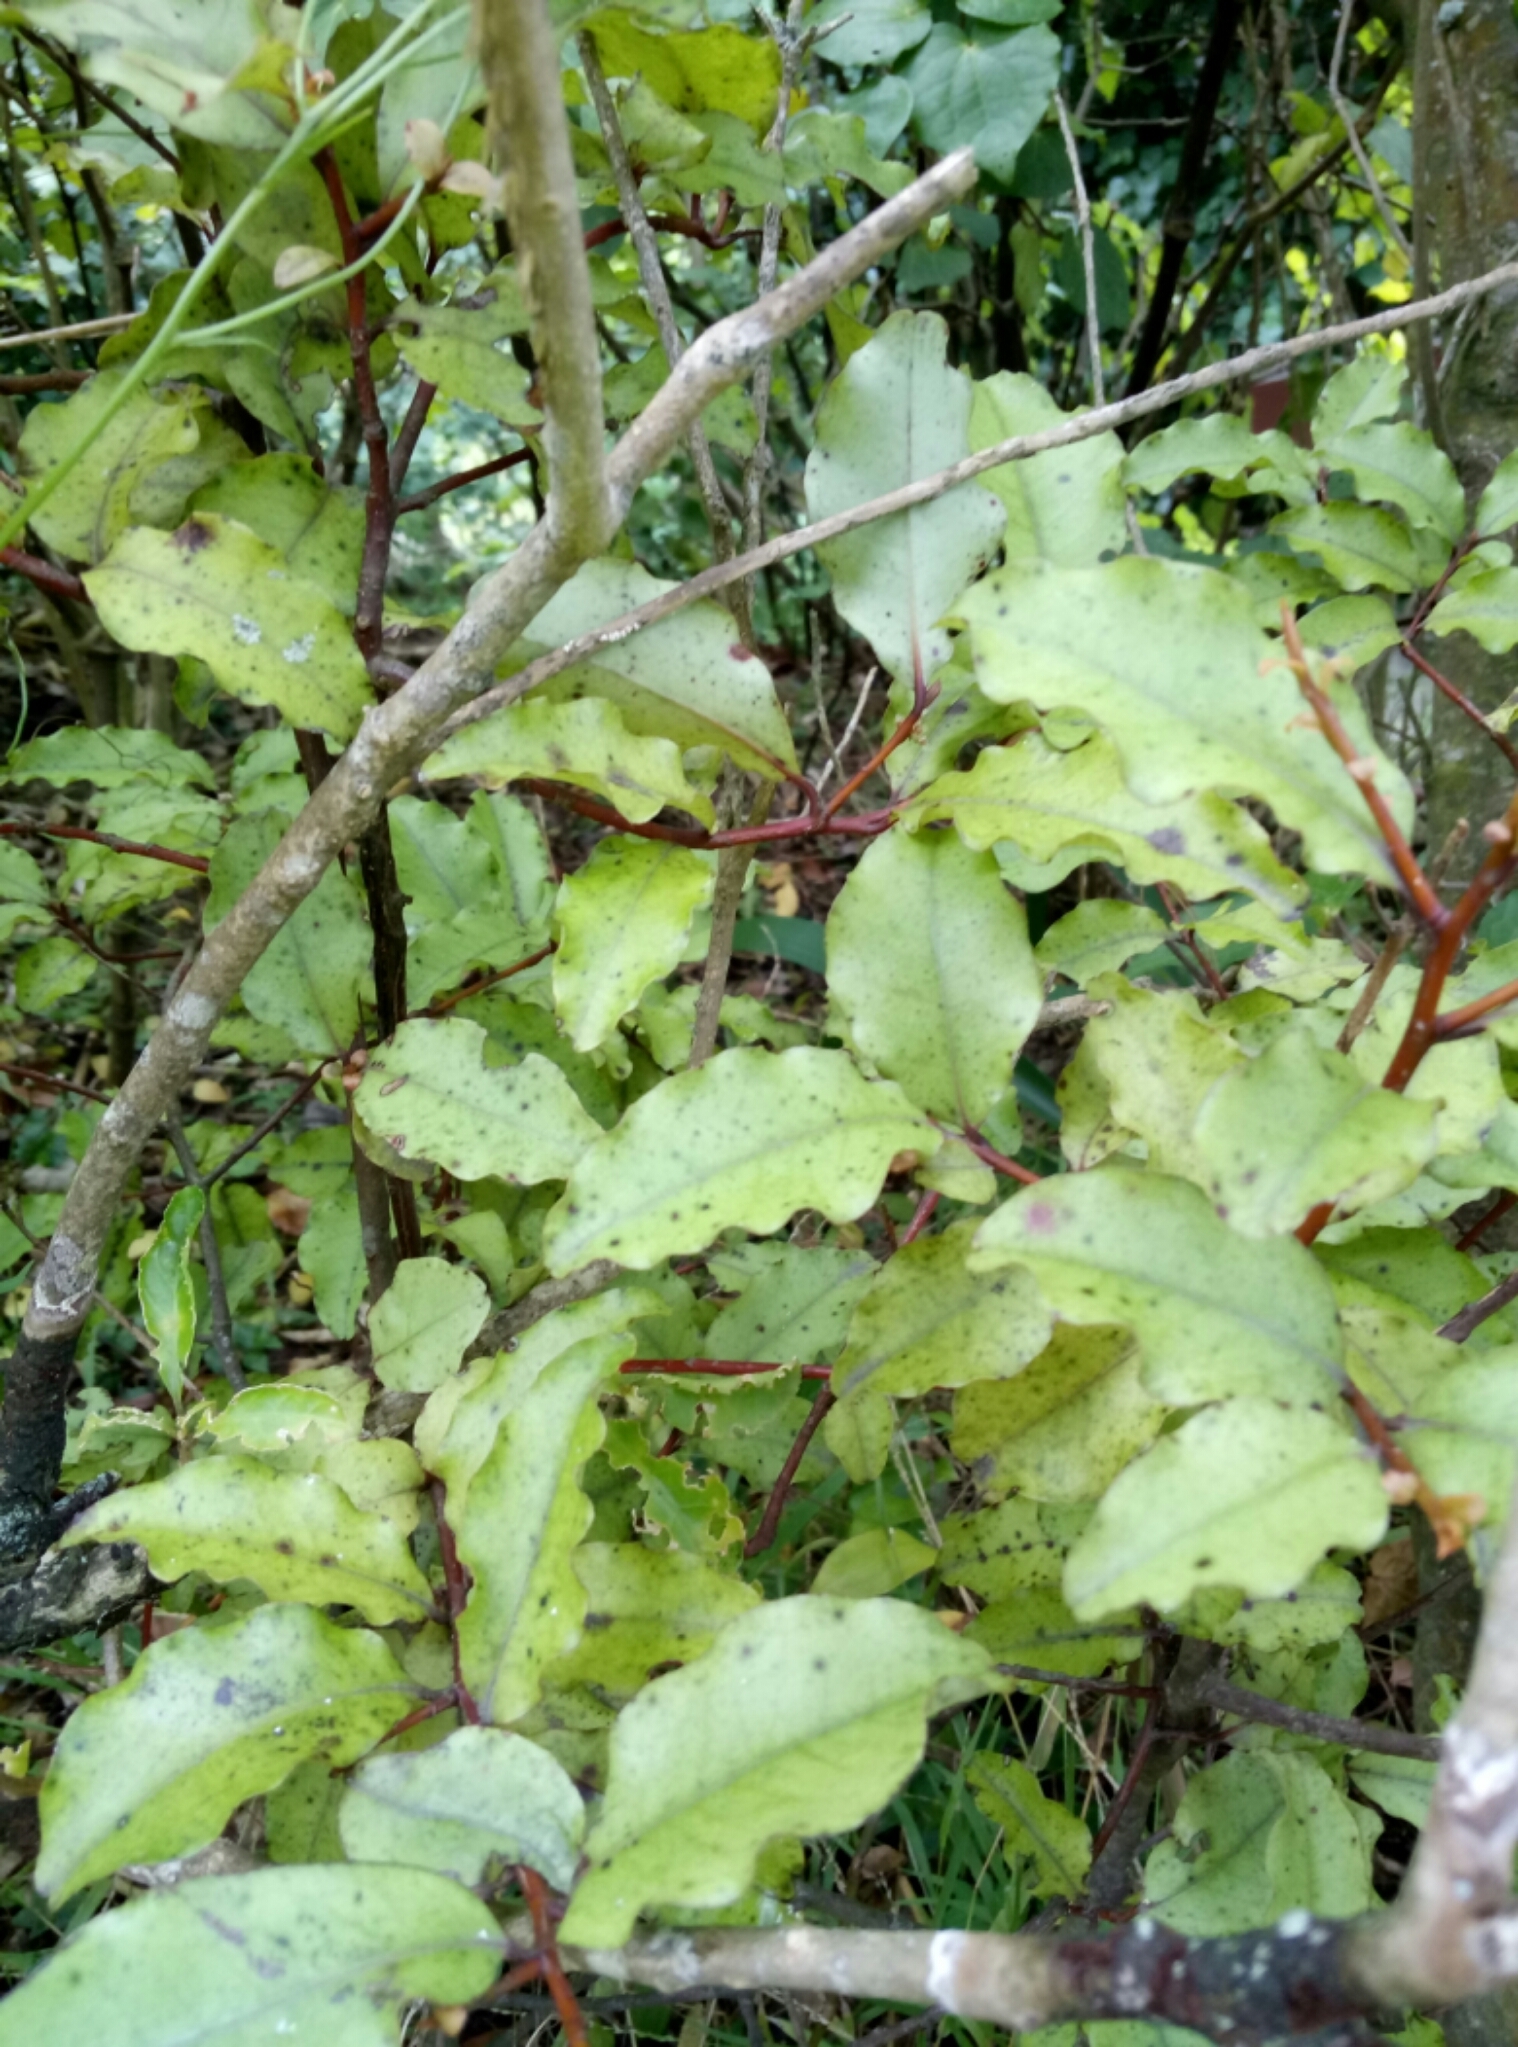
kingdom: Plantae
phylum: Tracheophyta
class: Magnoliopsida
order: Ericales
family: Primulaceae
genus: Myrsine
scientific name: Myrsine australis
